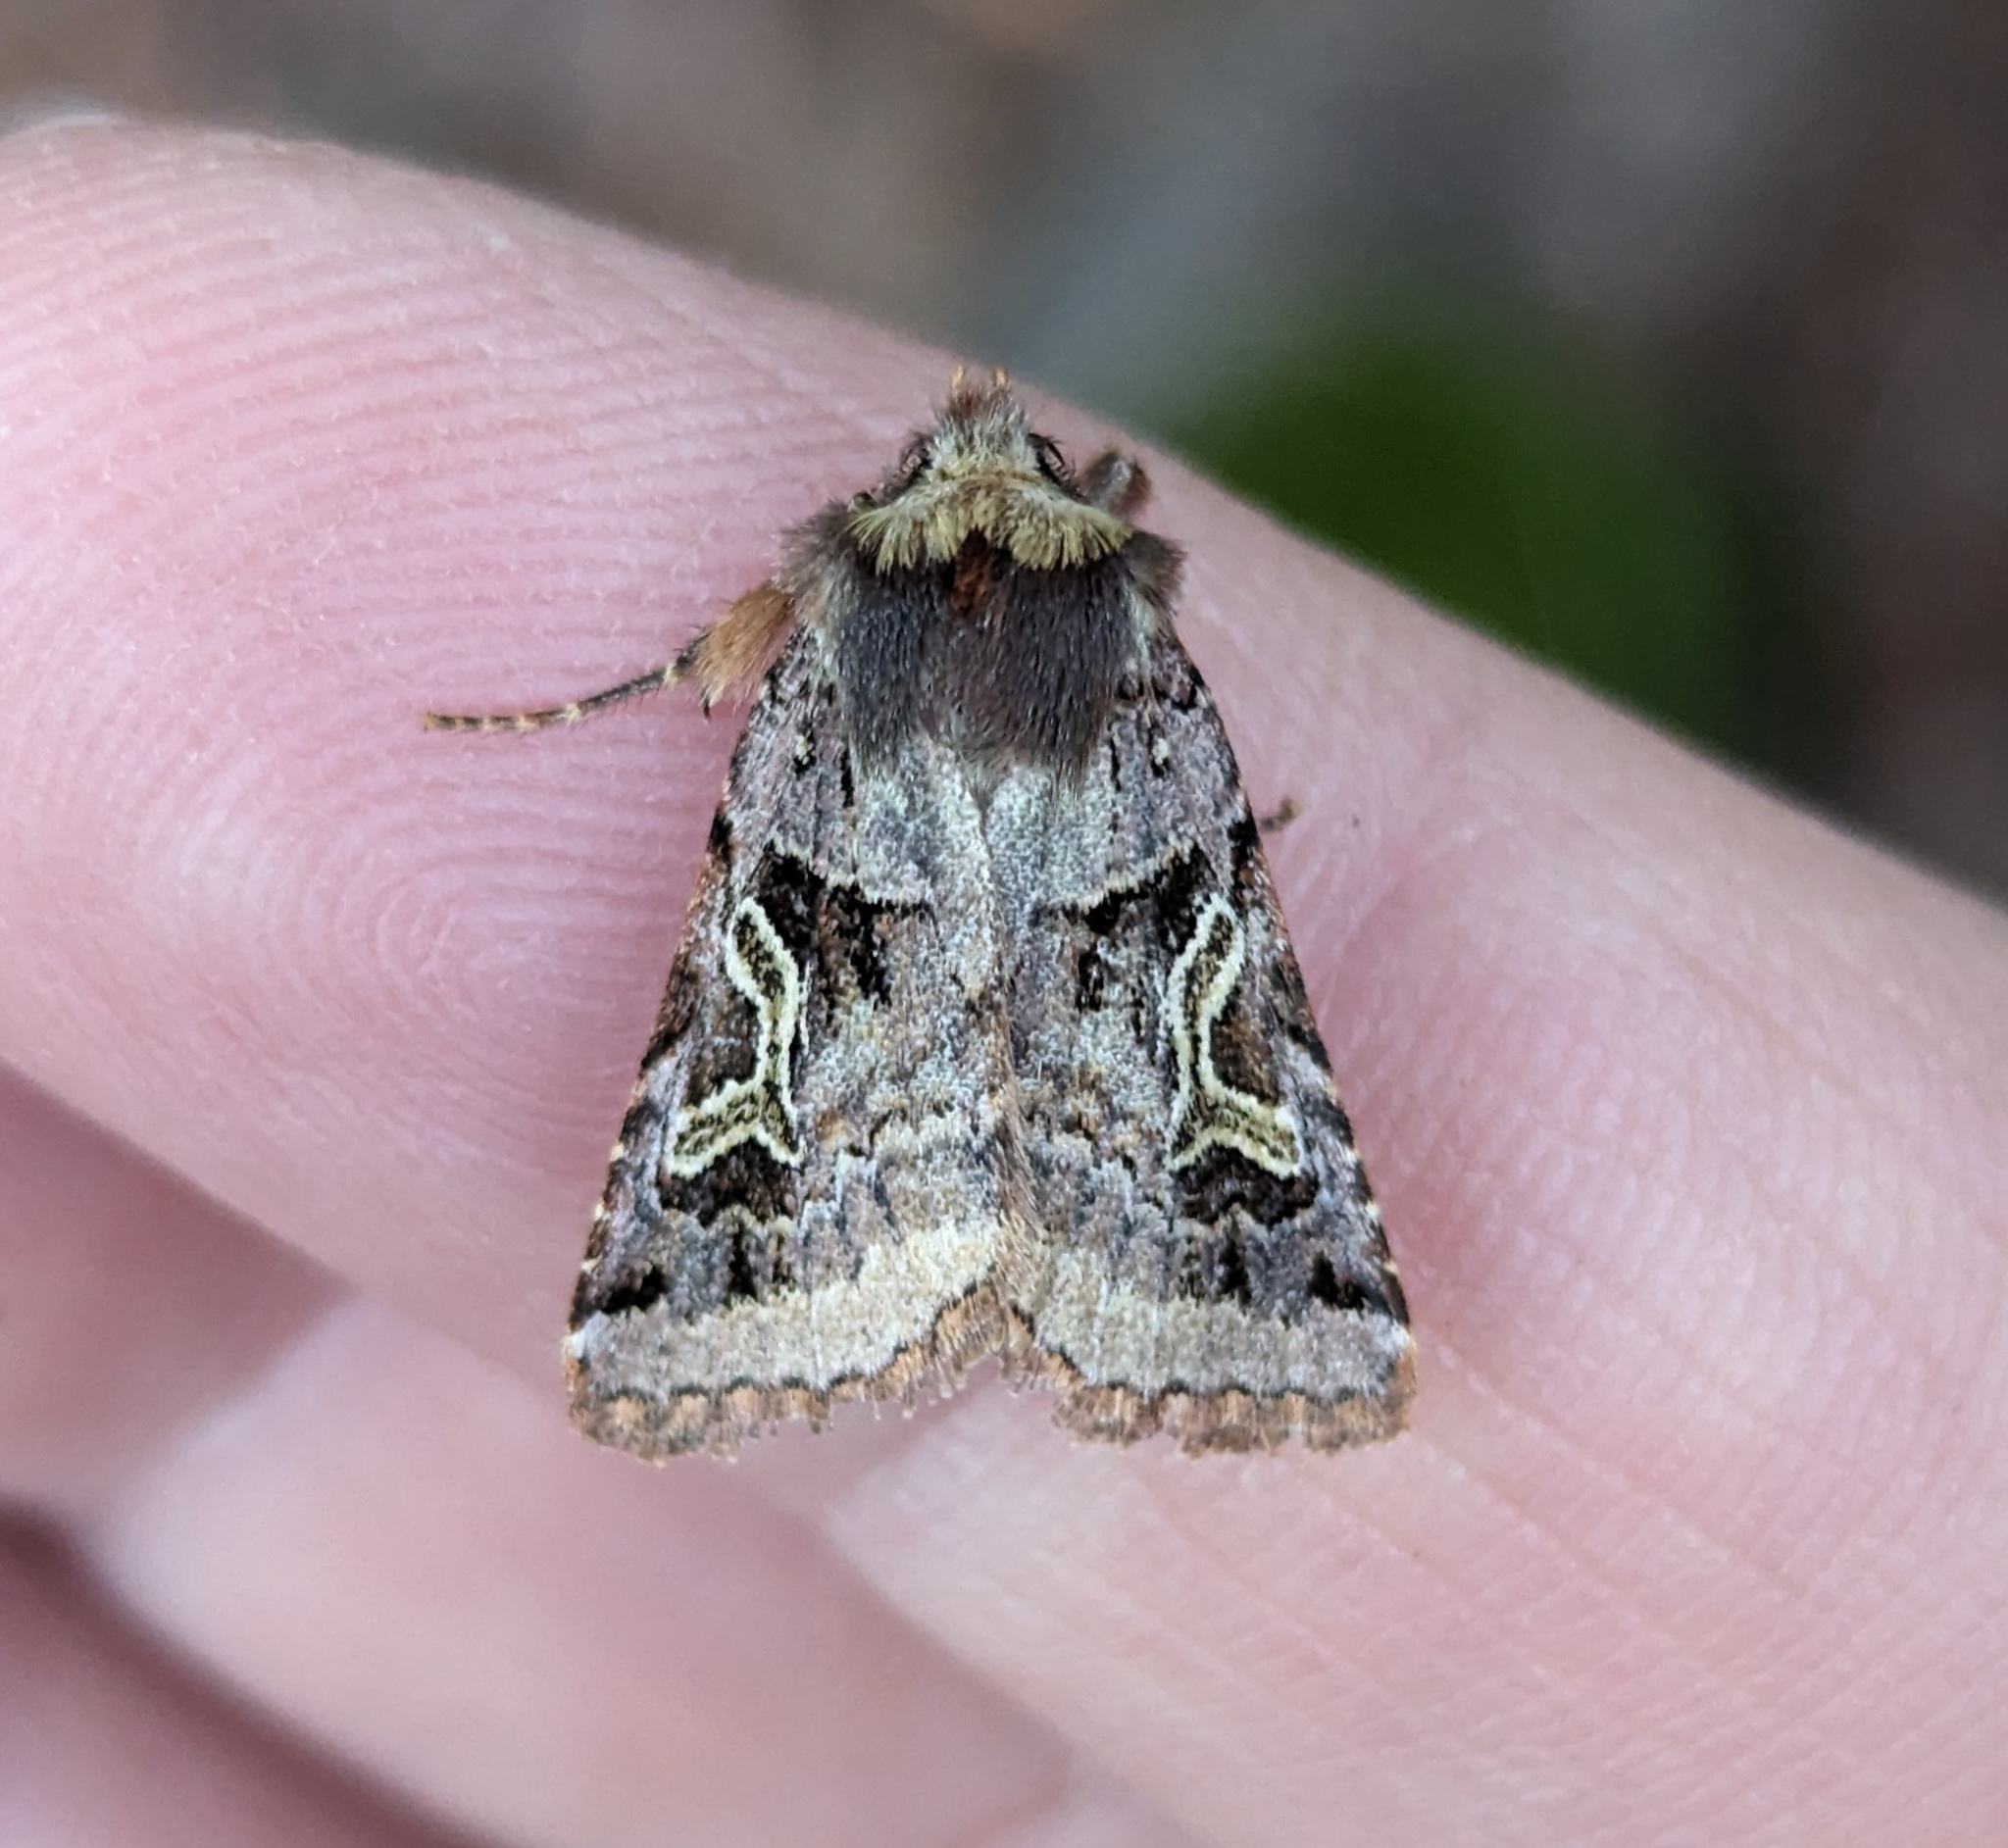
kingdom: Animalia
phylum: Arthropoda
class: Insecta
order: Lepidoptera
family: Noctuidae
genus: Cerastis
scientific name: Cerastis enigmatica
